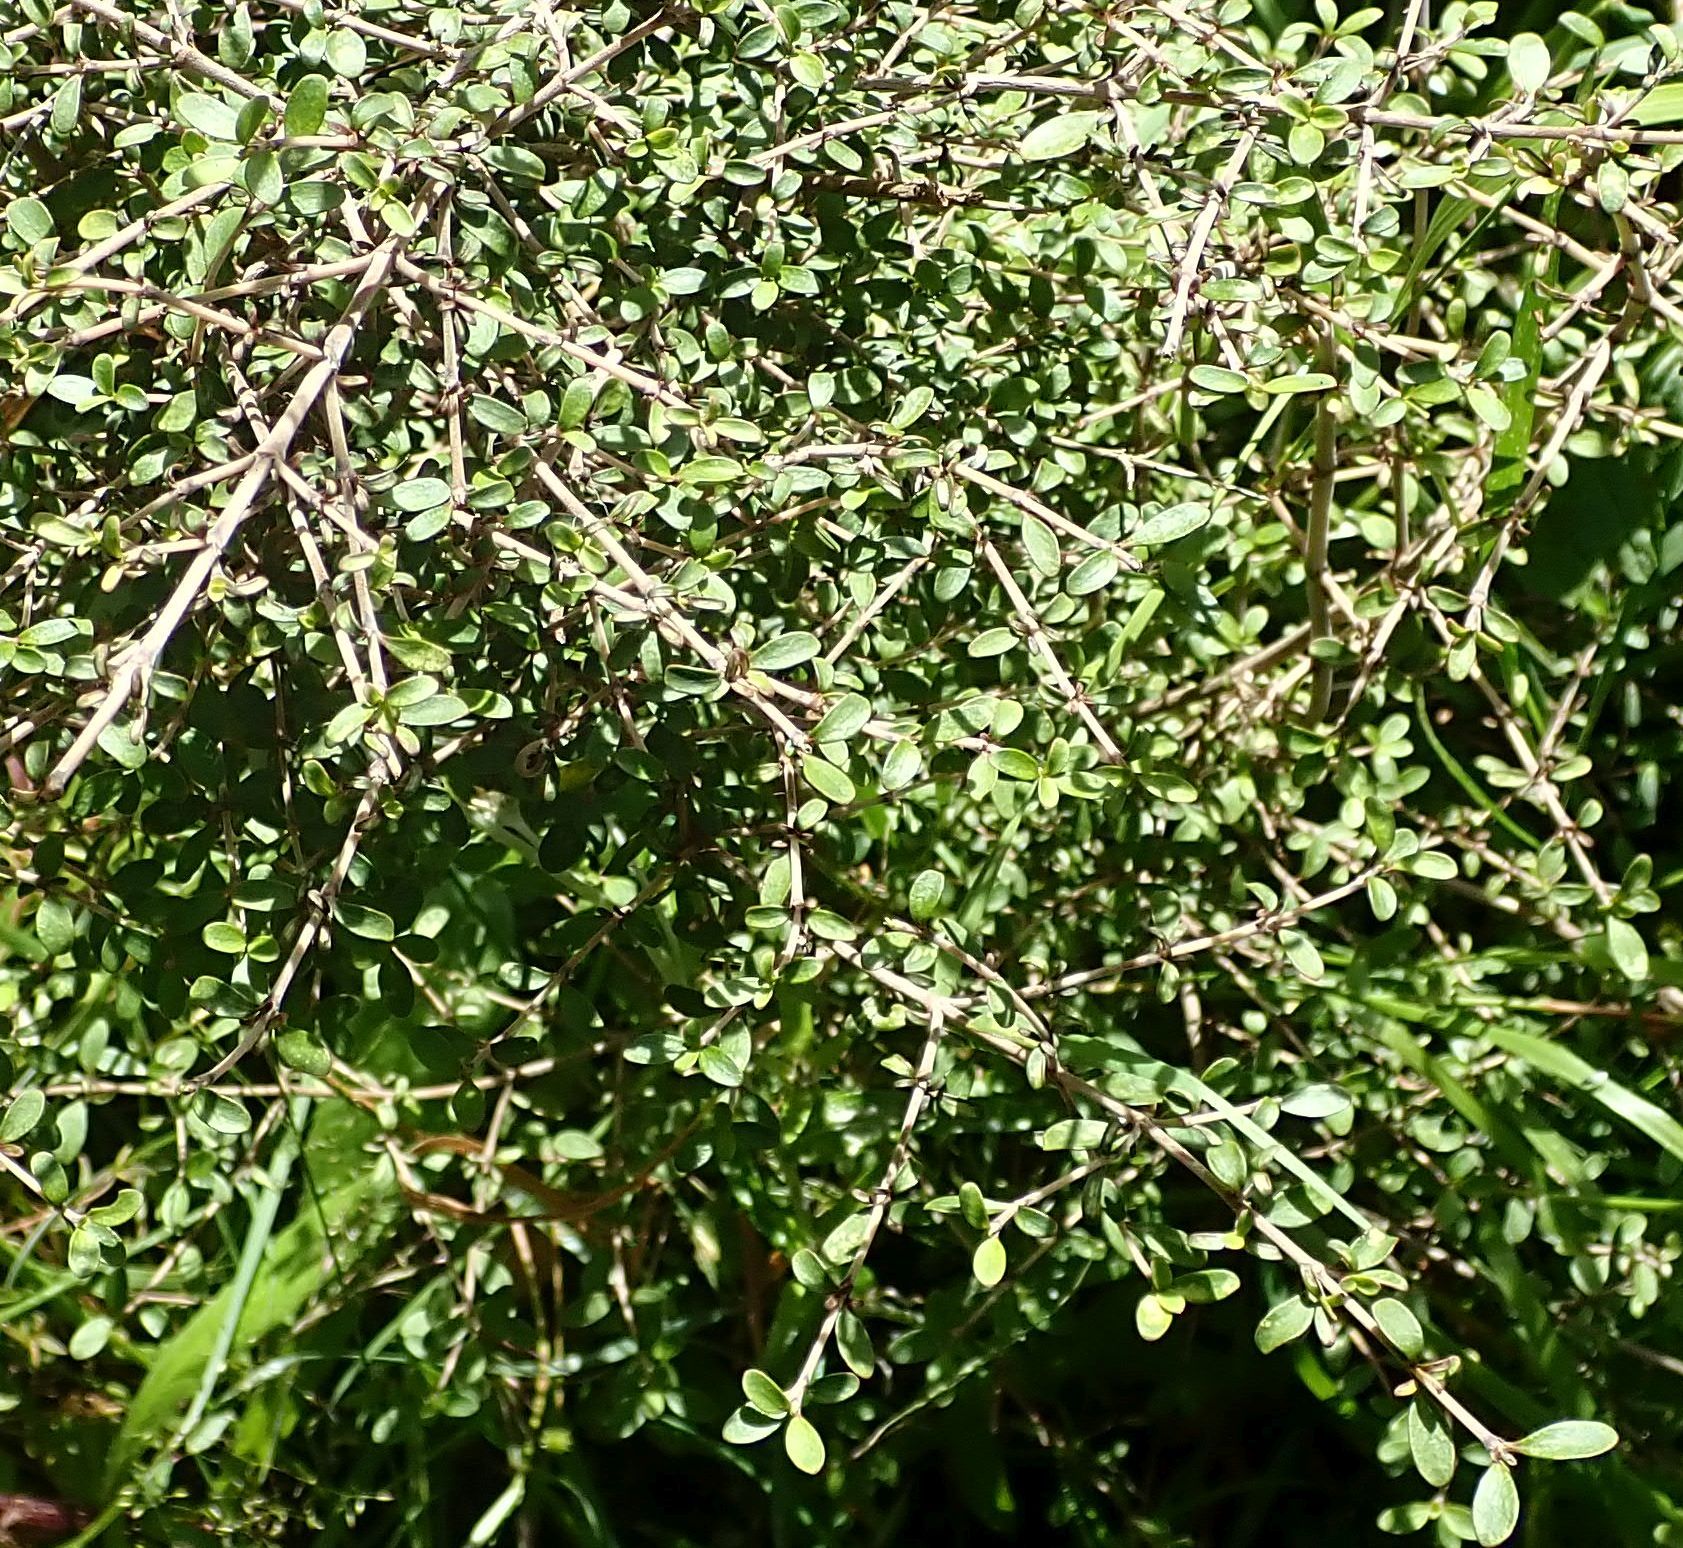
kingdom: Plantae
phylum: Tracheophyta
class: Magnoliopsida
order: Gentianales
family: Rubiaceae
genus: Coprosma
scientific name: Coprosma dumosa
